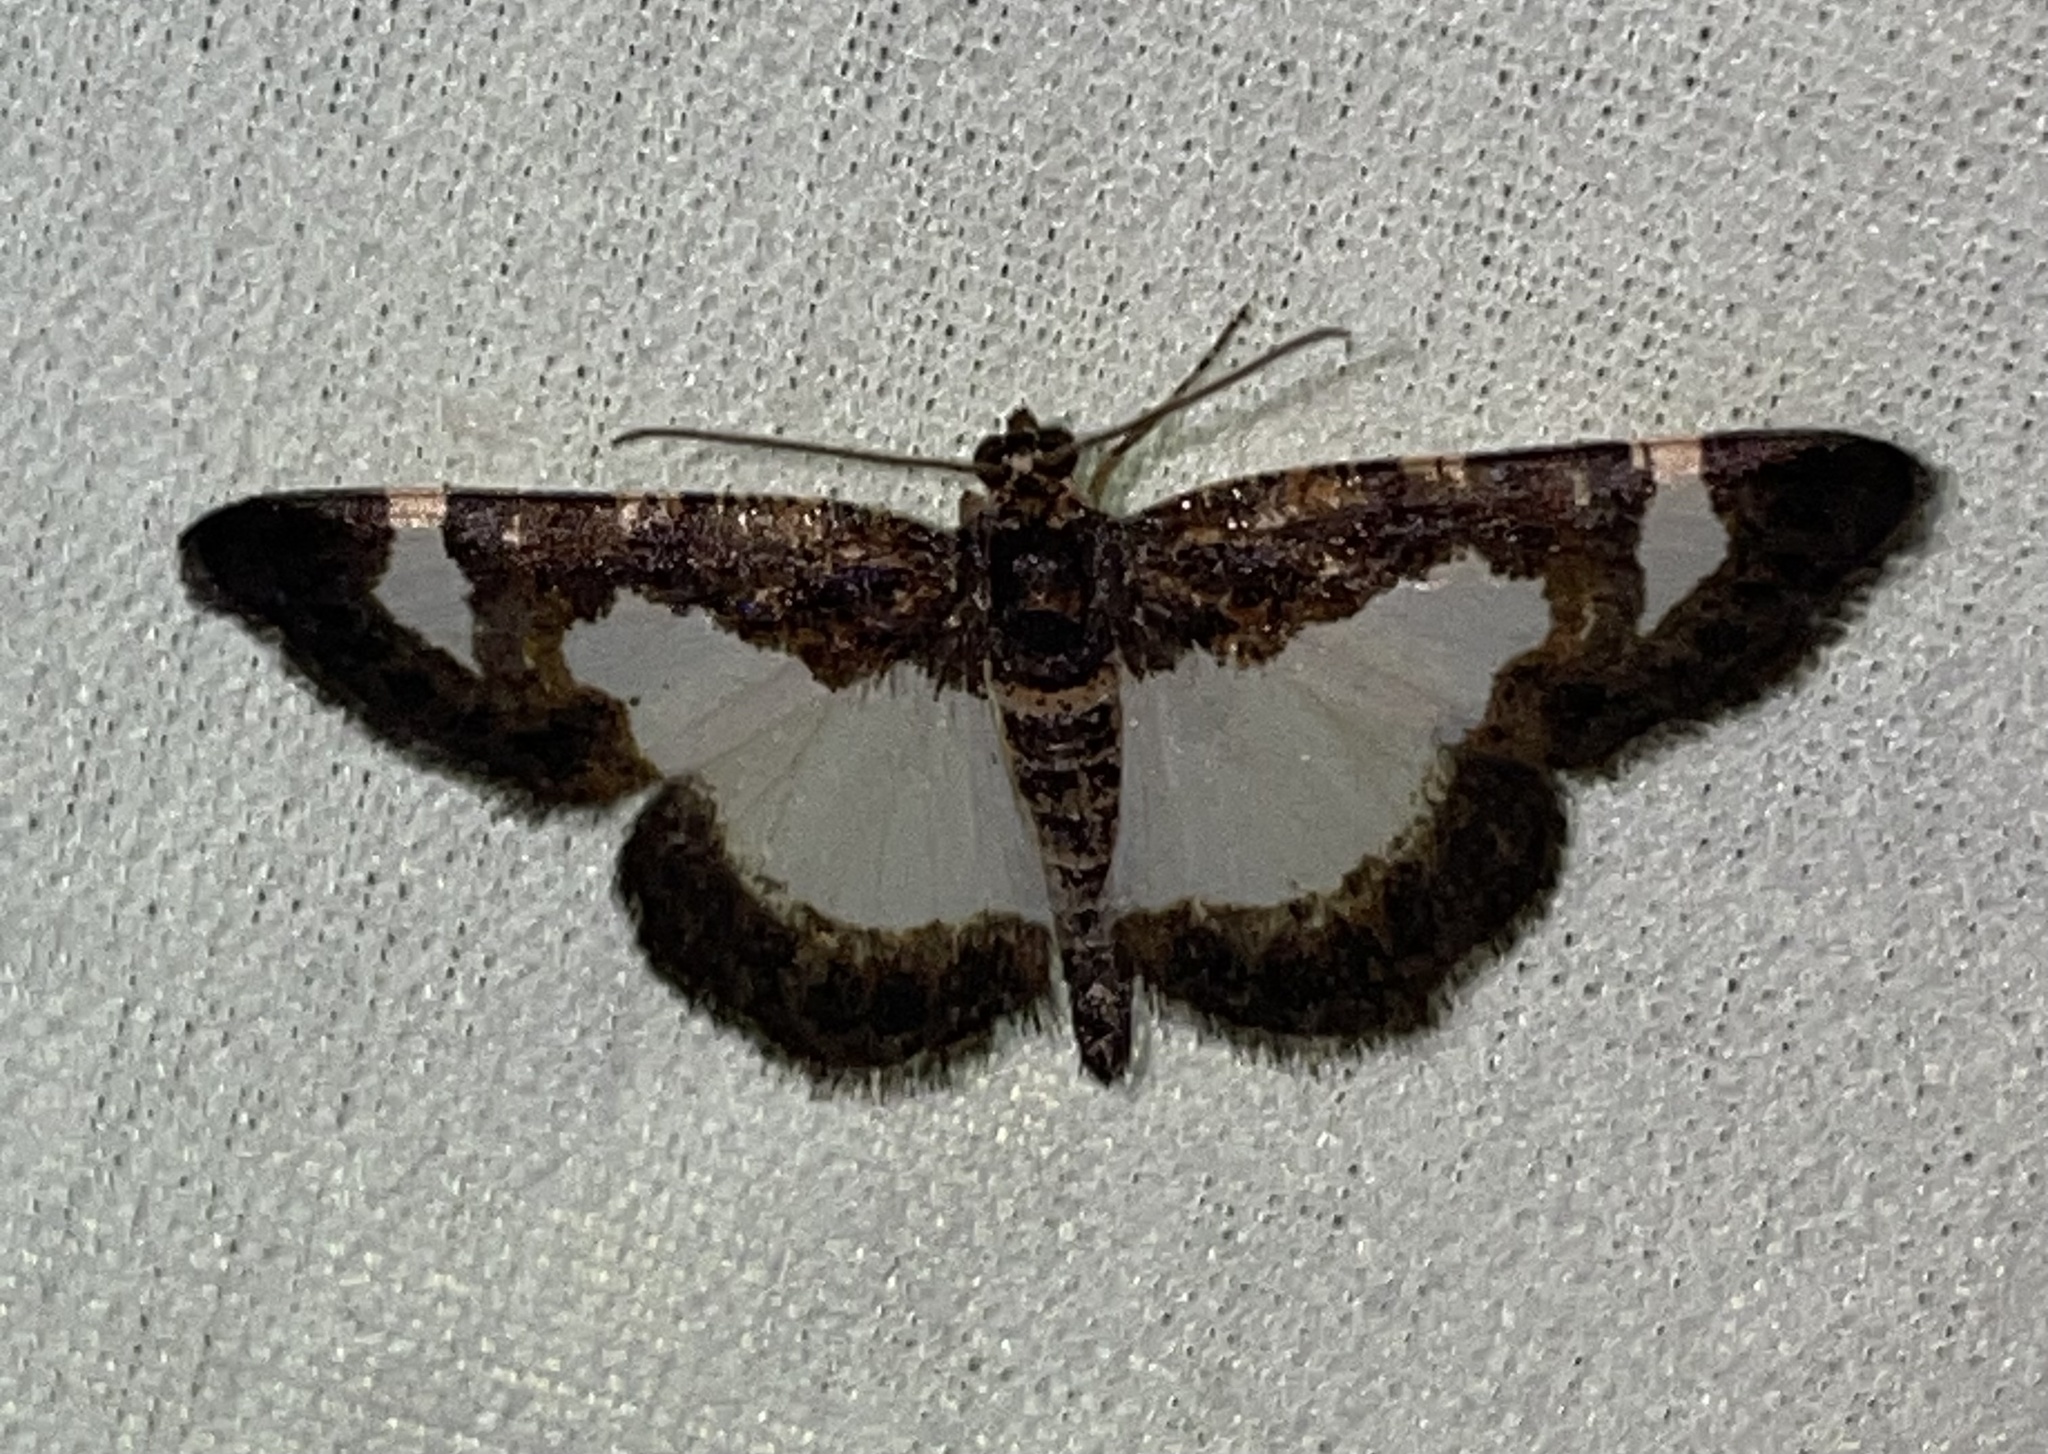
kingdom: Animalia
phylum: Arthropoda
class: Insecta
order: Lepidoptera
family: Geometridae
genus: Heliomata
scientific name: Heliomata cycladata
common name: Common spring moth
